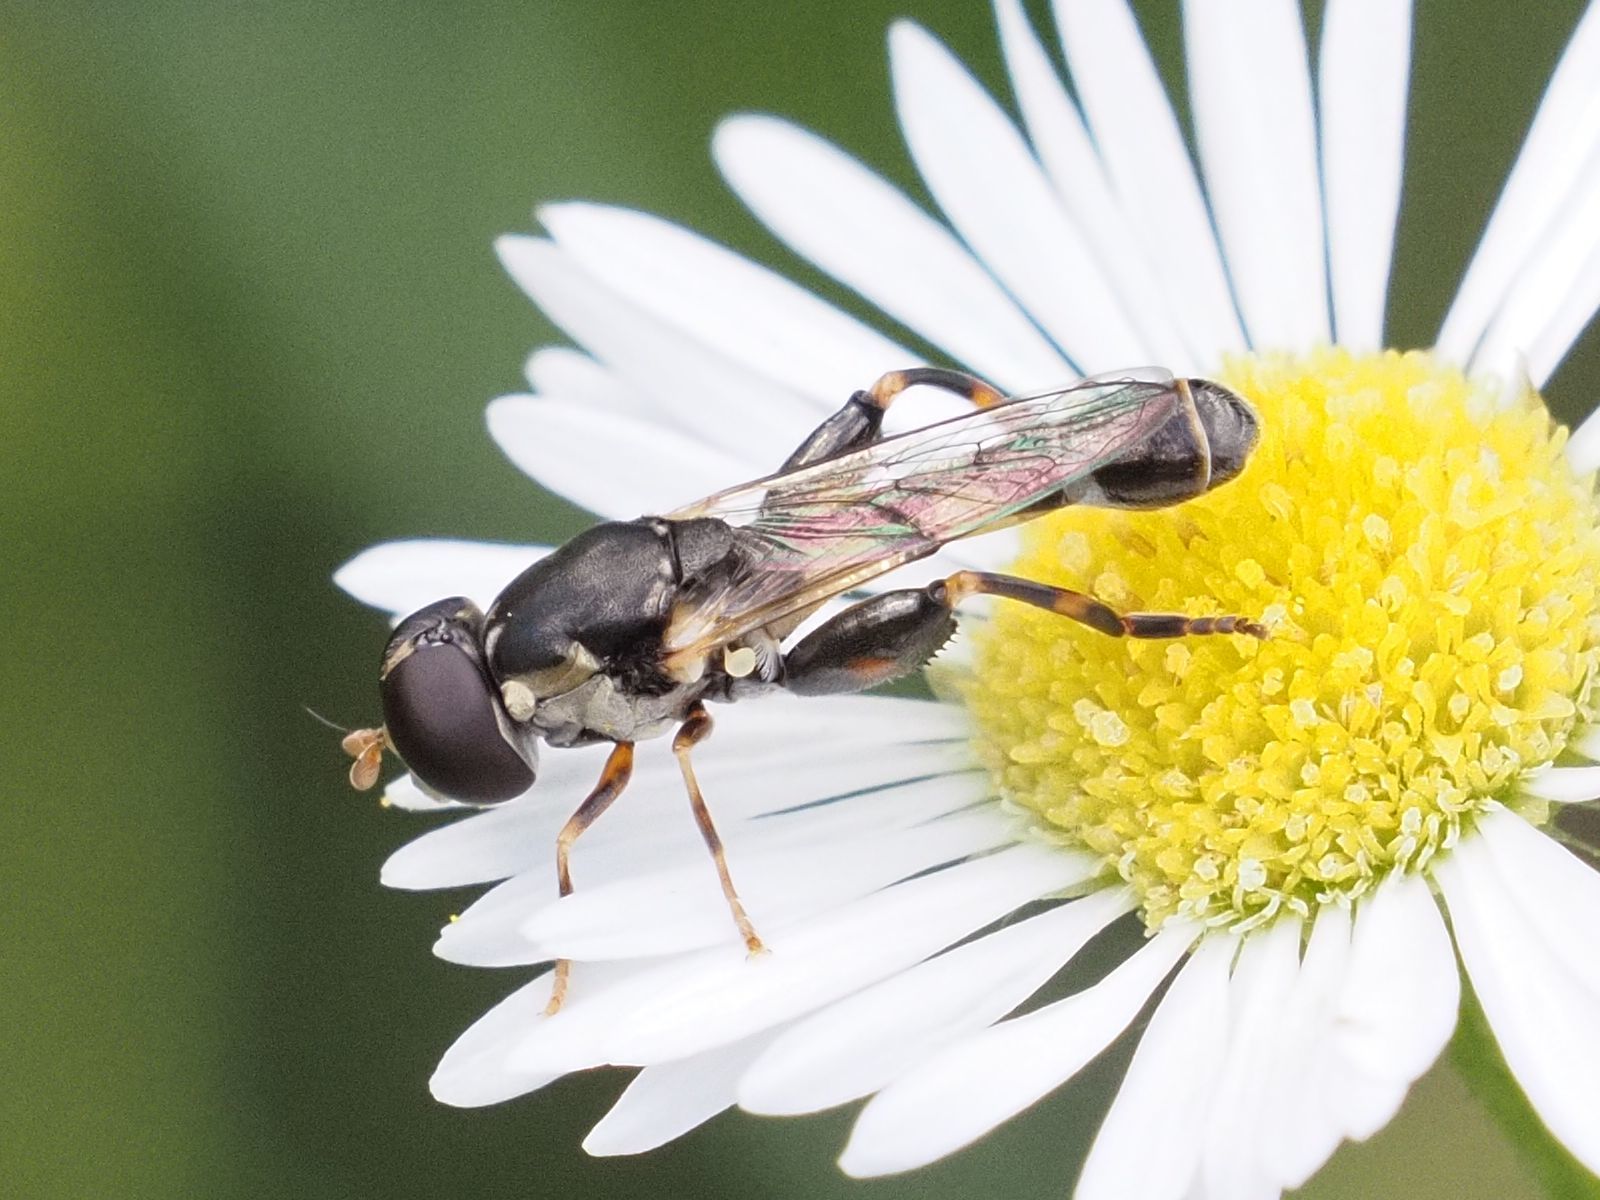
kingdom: Animalia
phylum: Arthropoda
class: Insecta
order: Diptera
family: Syrphidae
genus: Syritta
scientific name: Syritta pipiens
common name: Hover fly
